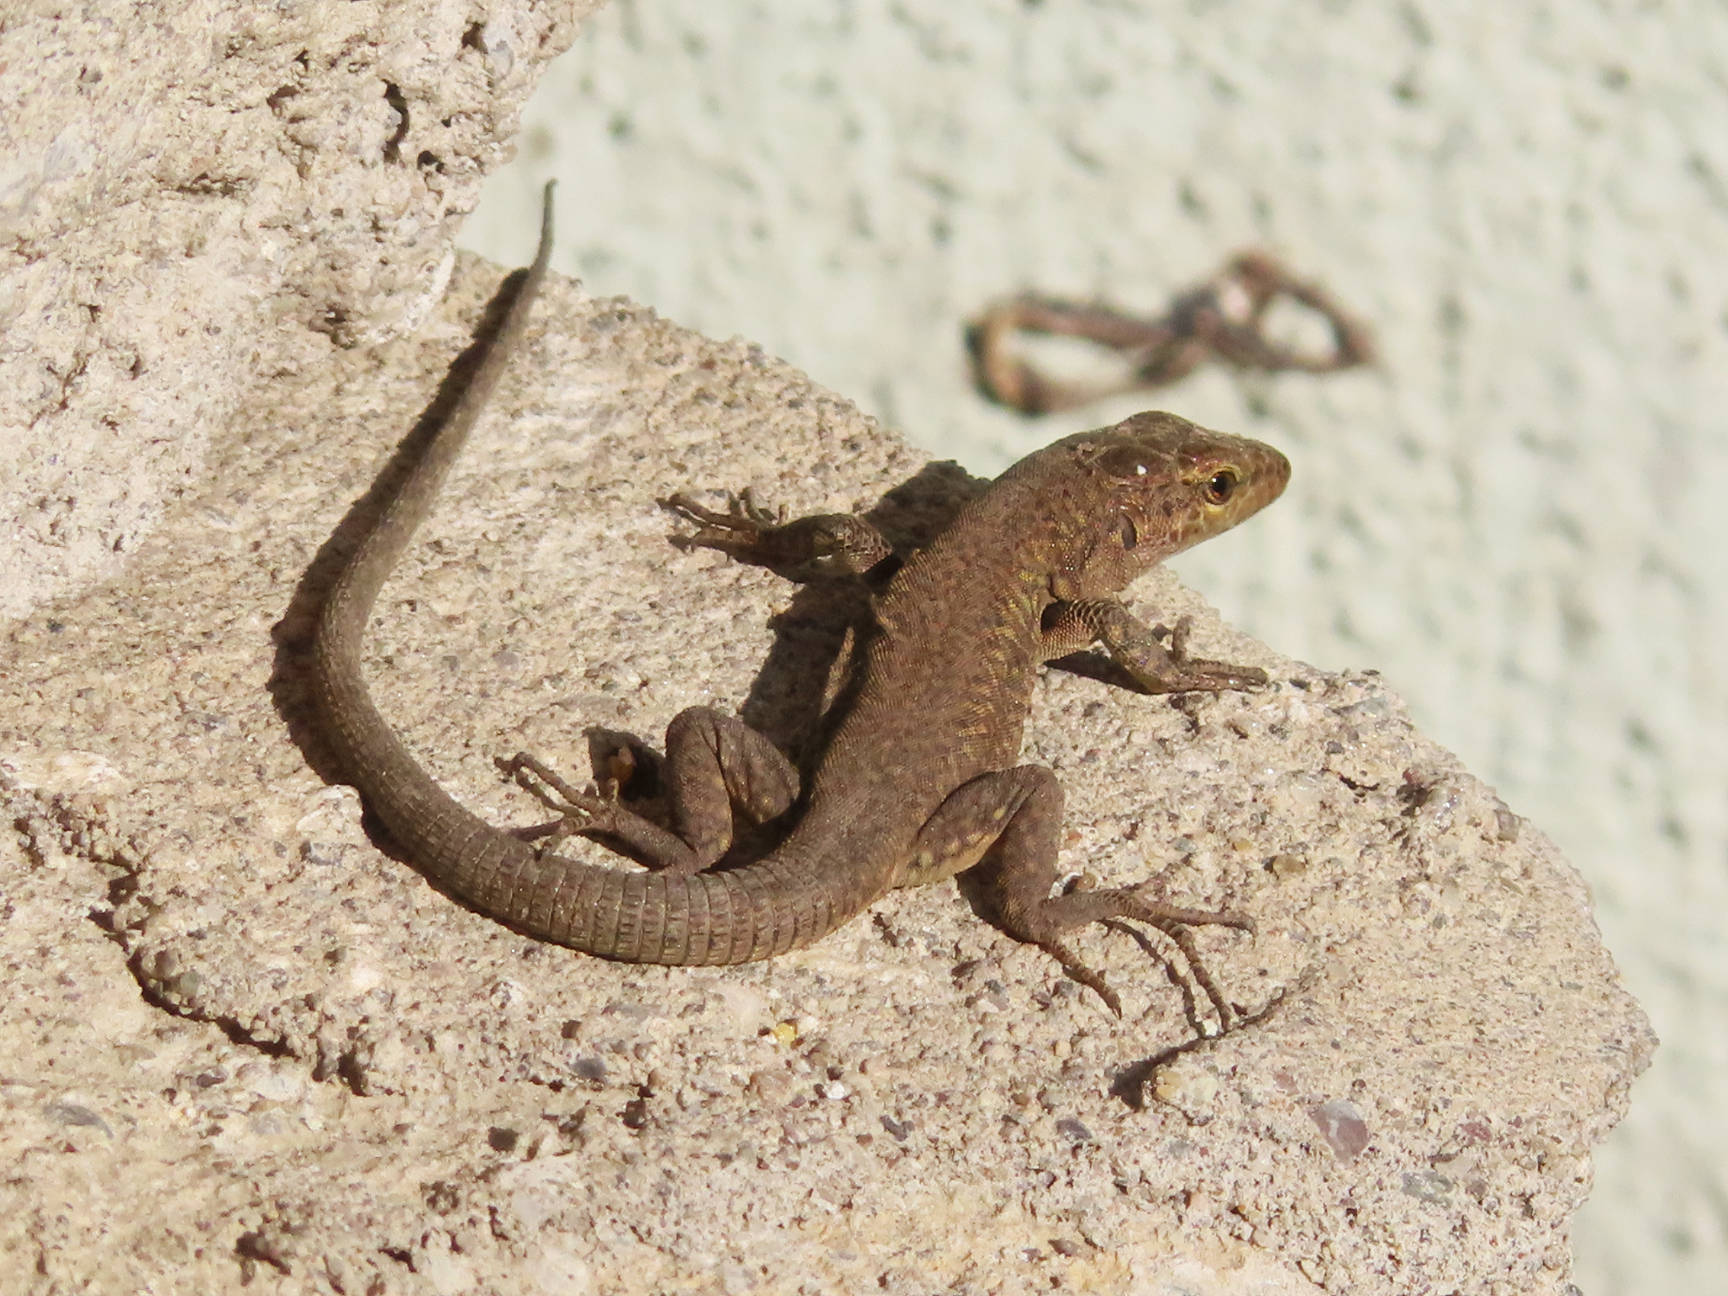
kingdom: Animalia
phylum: Chordata
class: Squamata
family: Lacertidae
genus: Podarcis
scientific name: Podarcis siculus
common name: Italian wall lizard
